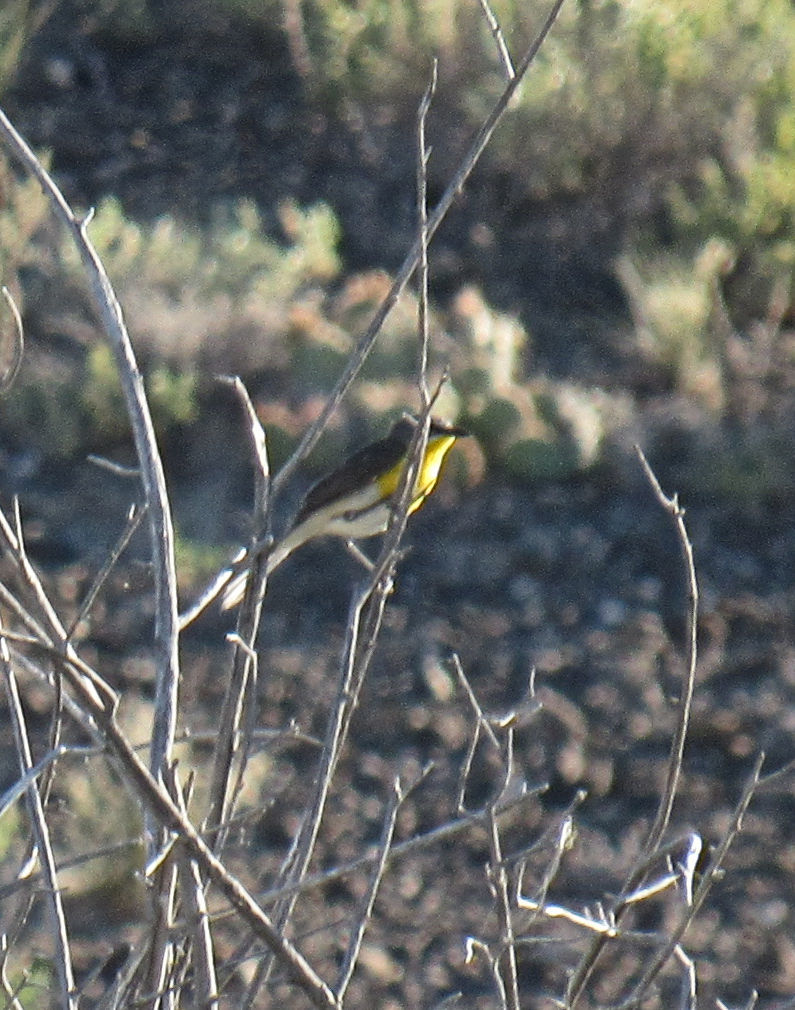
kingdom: Animalia
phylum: Chordata
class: Aves
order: Passeriformes
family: Parulidae
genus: Icteria
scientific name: Icteria virens
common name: Yellow-breasted chat
